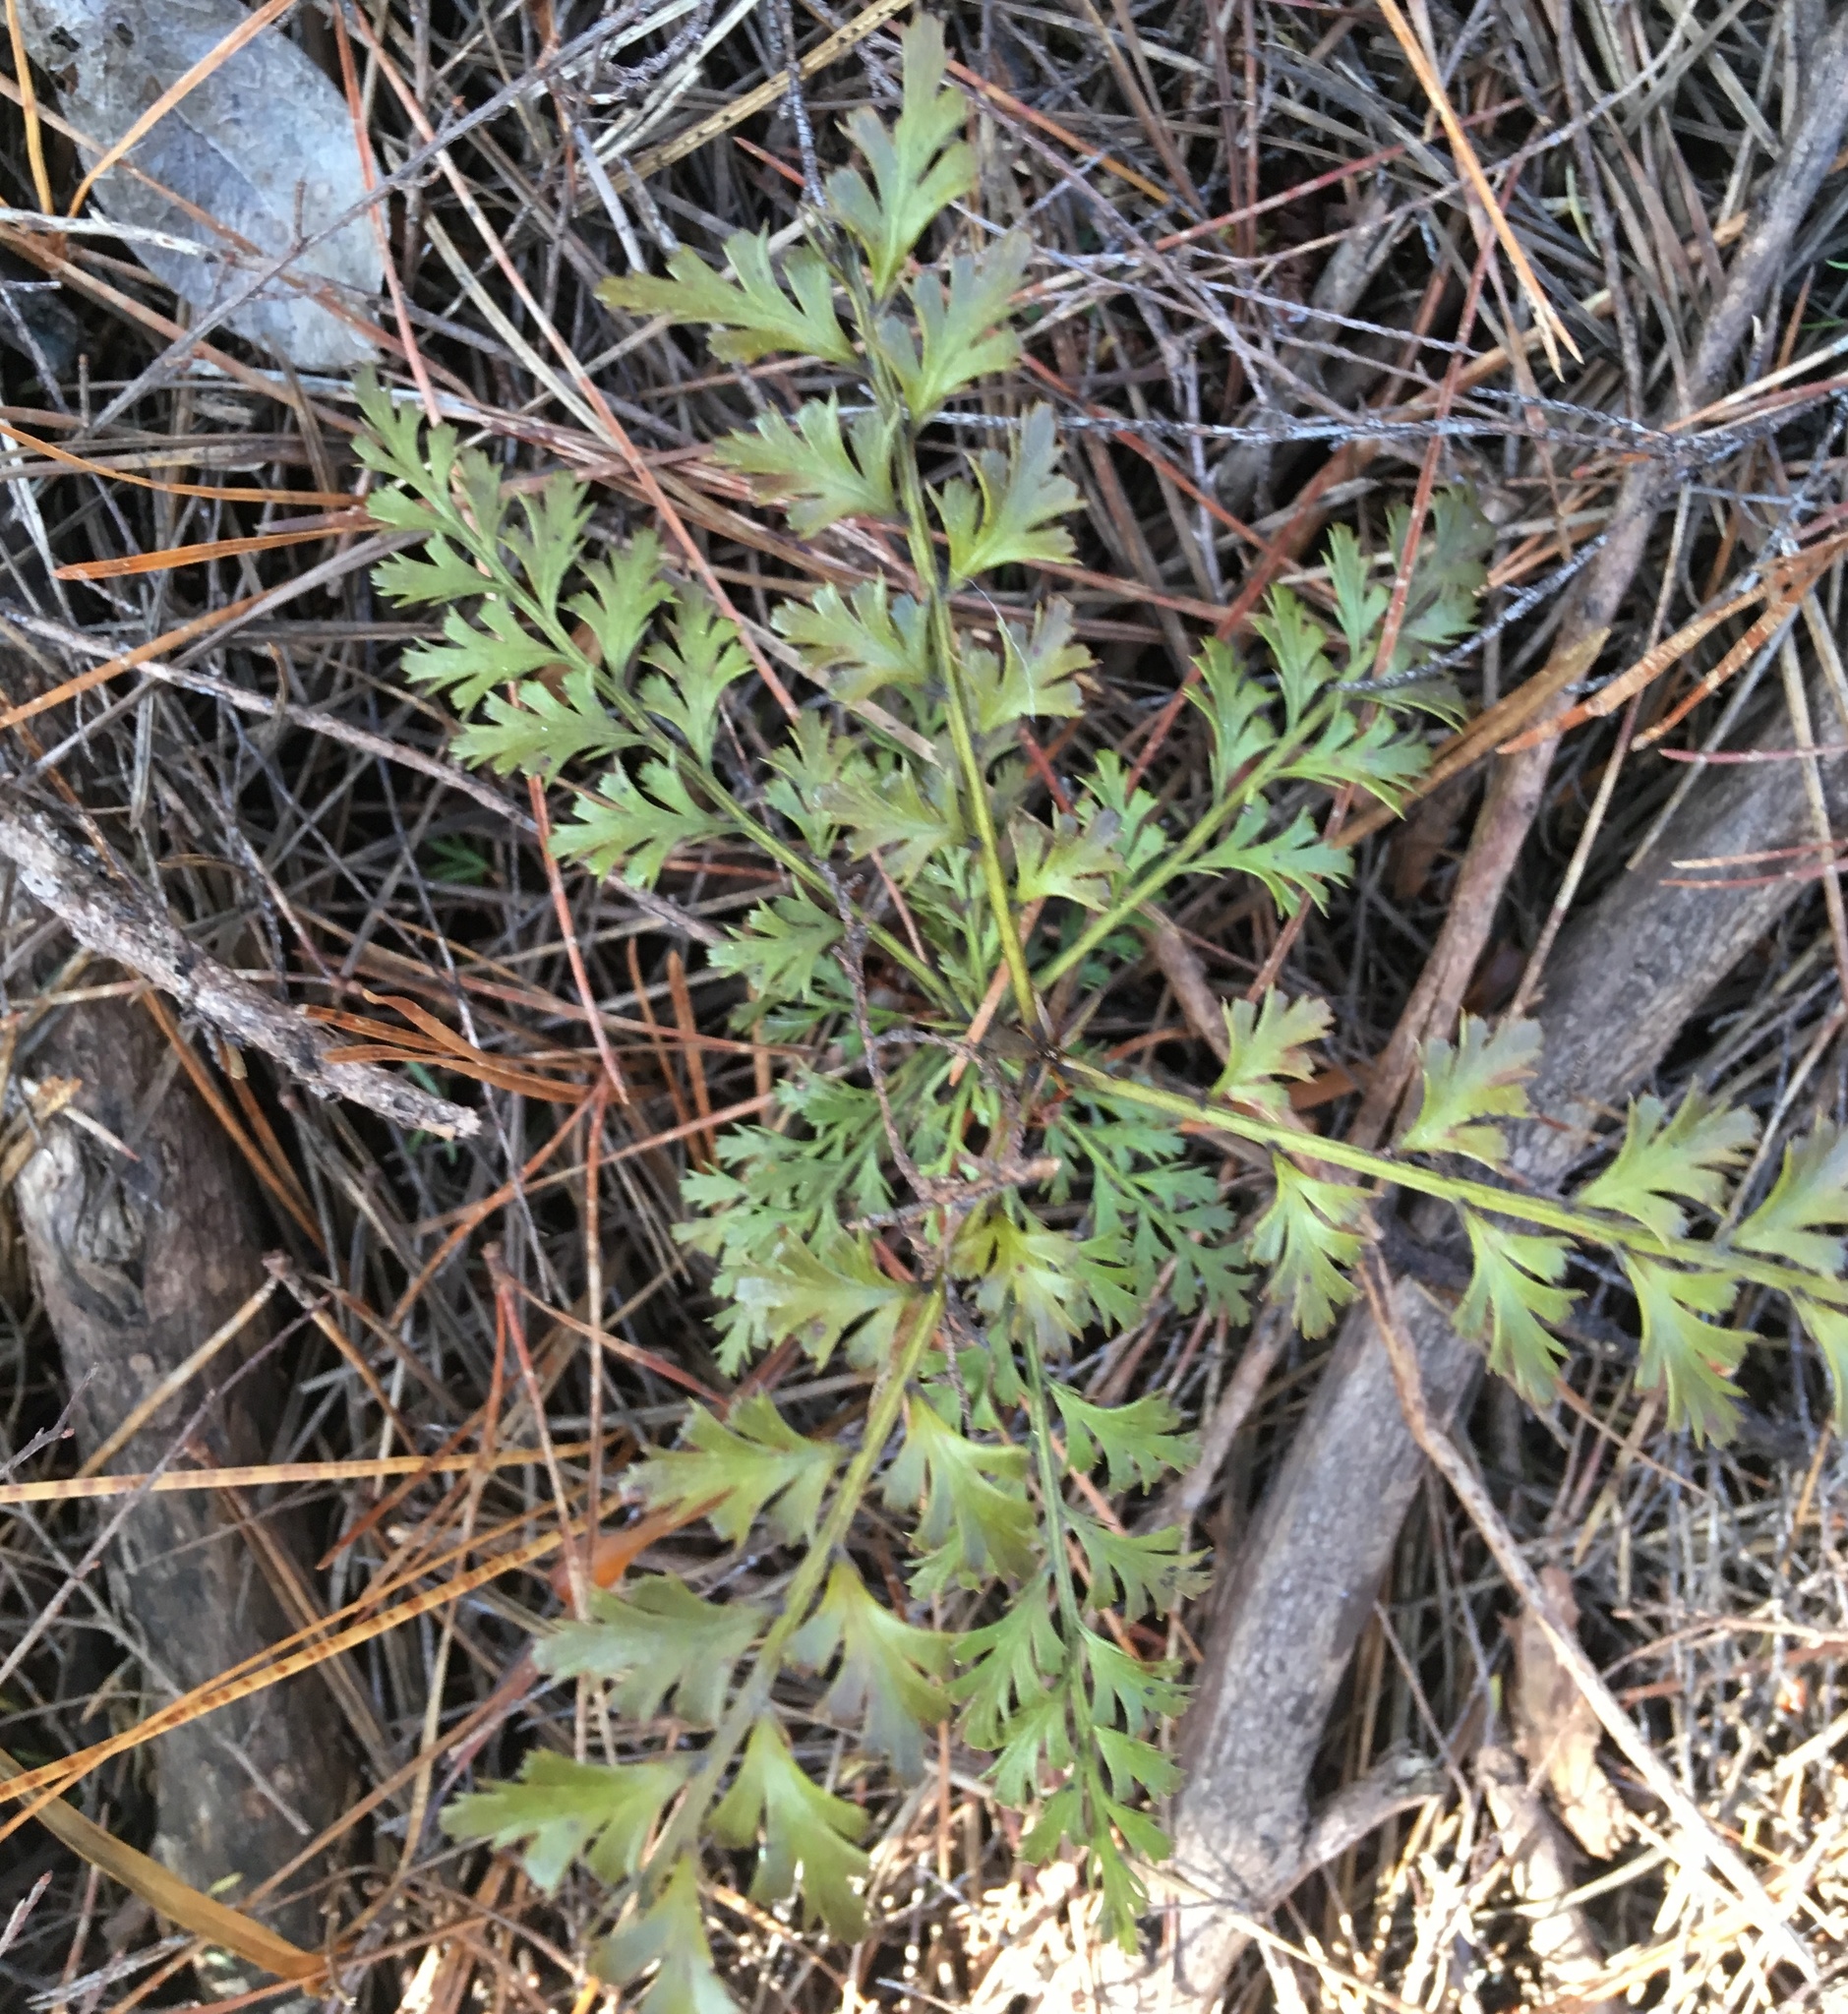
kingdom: Plantae
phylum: Tracheophyta
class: Pinopsida
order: Pinales
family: Phyllocladaceae
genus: Phyllocladus
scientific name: Phyllocladus trichomanoides
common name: Celery pine
